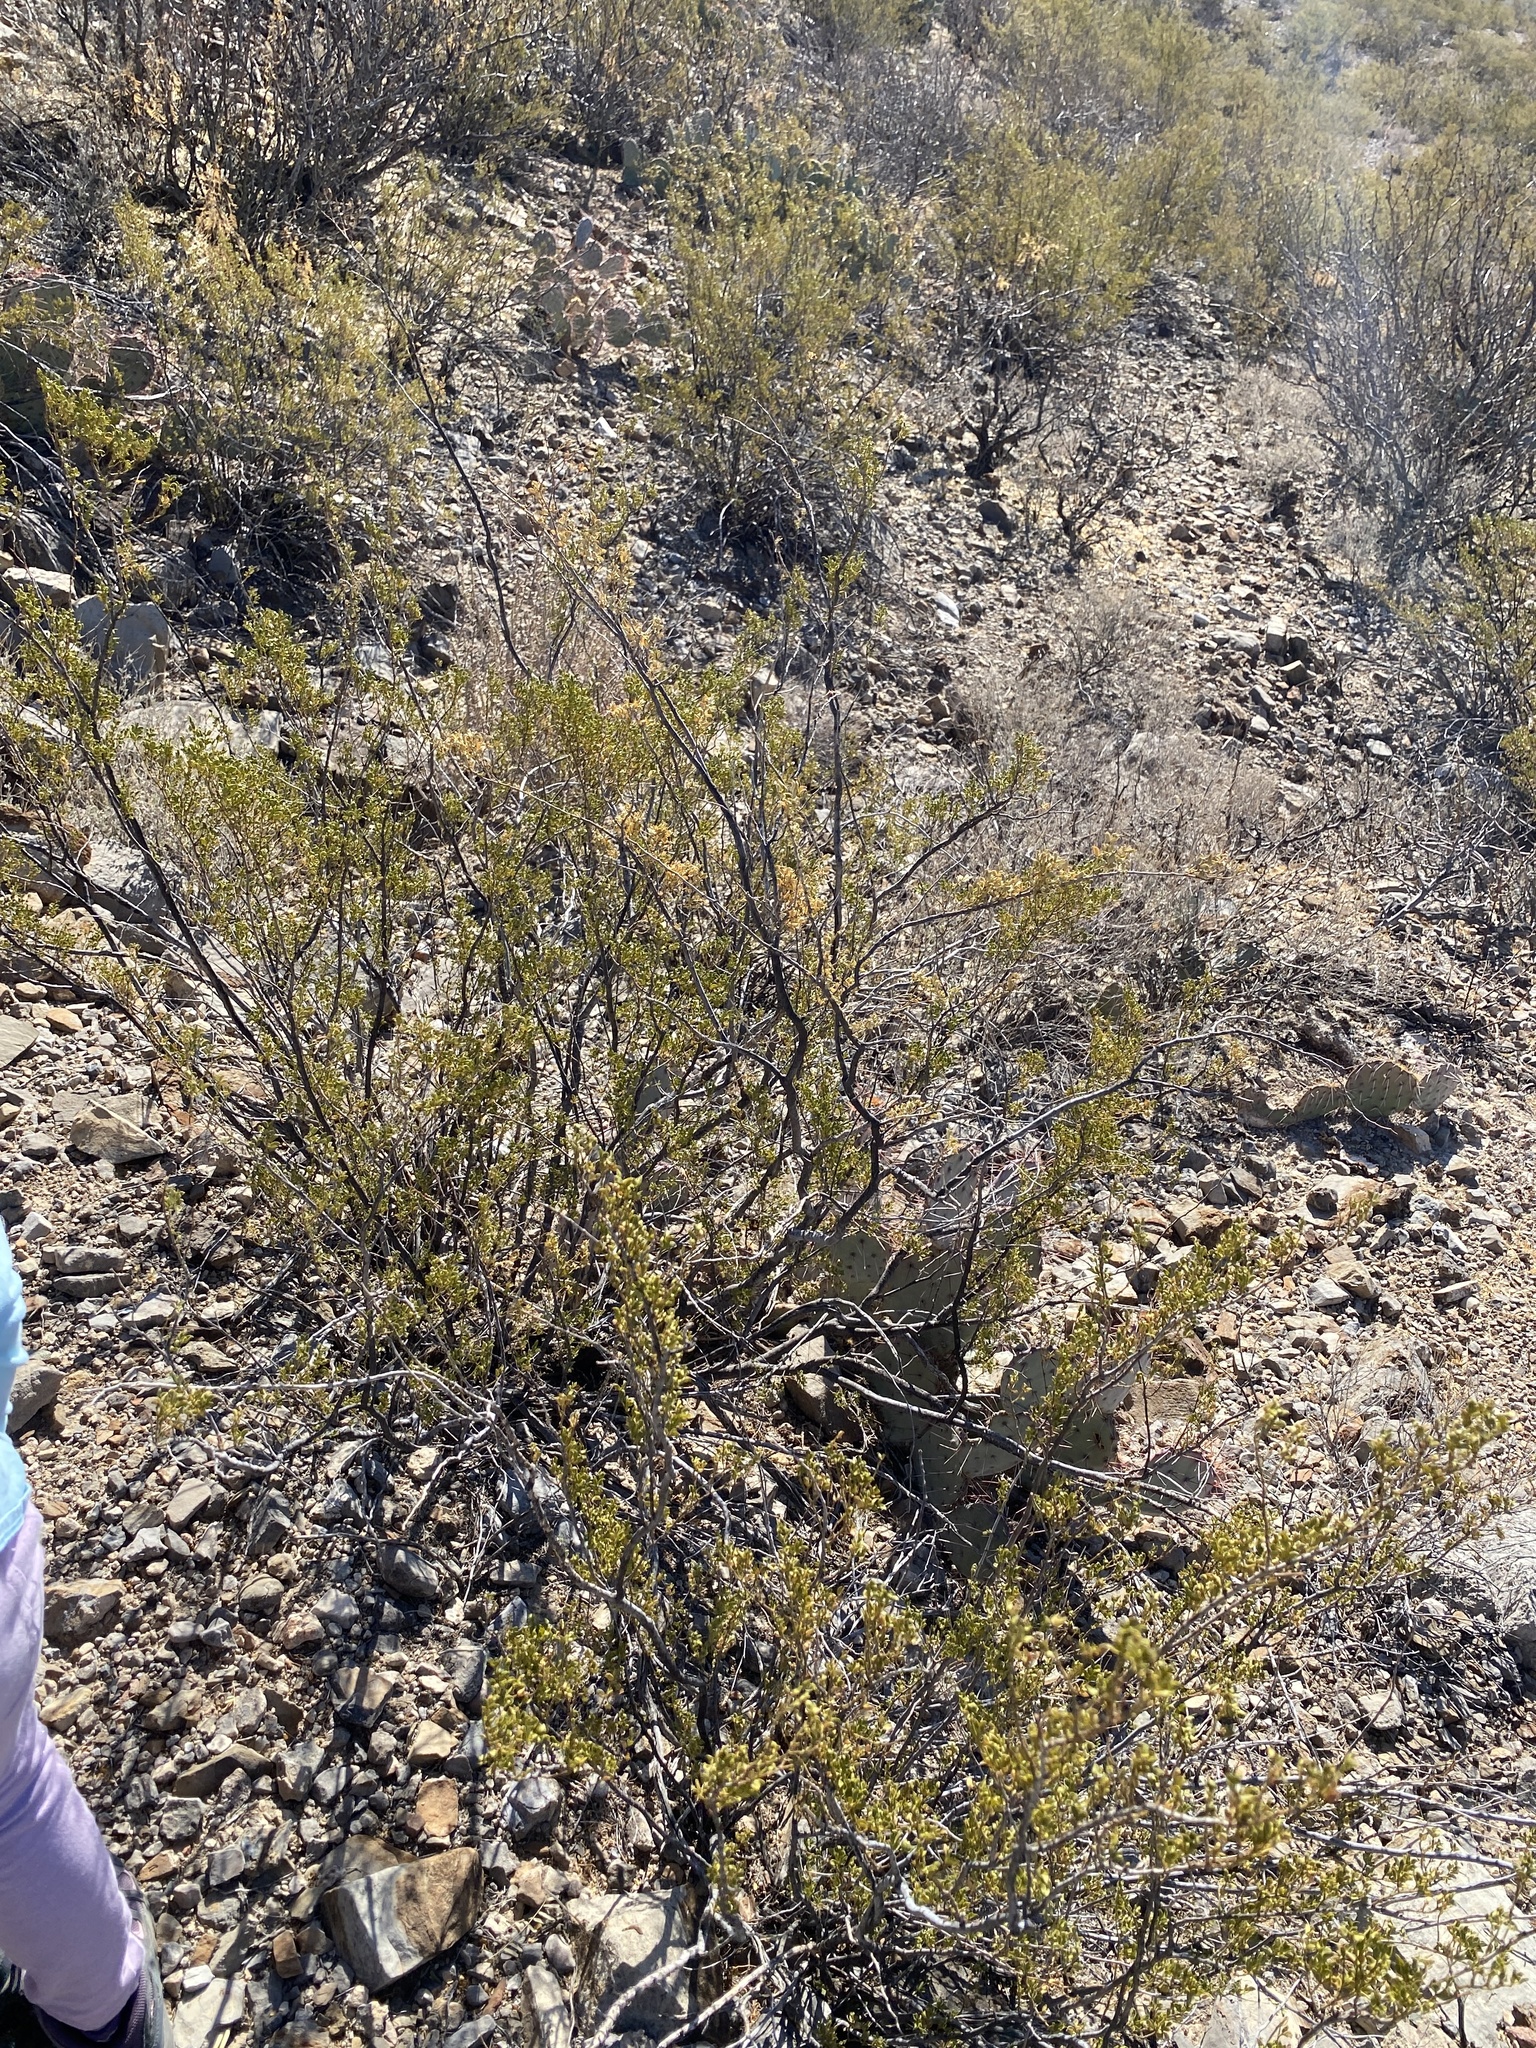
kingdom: Plantae
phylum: Tracheophyta
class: Magnoliopsida
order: Zygophyllales
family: Zygophyllaceae
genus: Larrea
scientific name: Larrea tridentata
